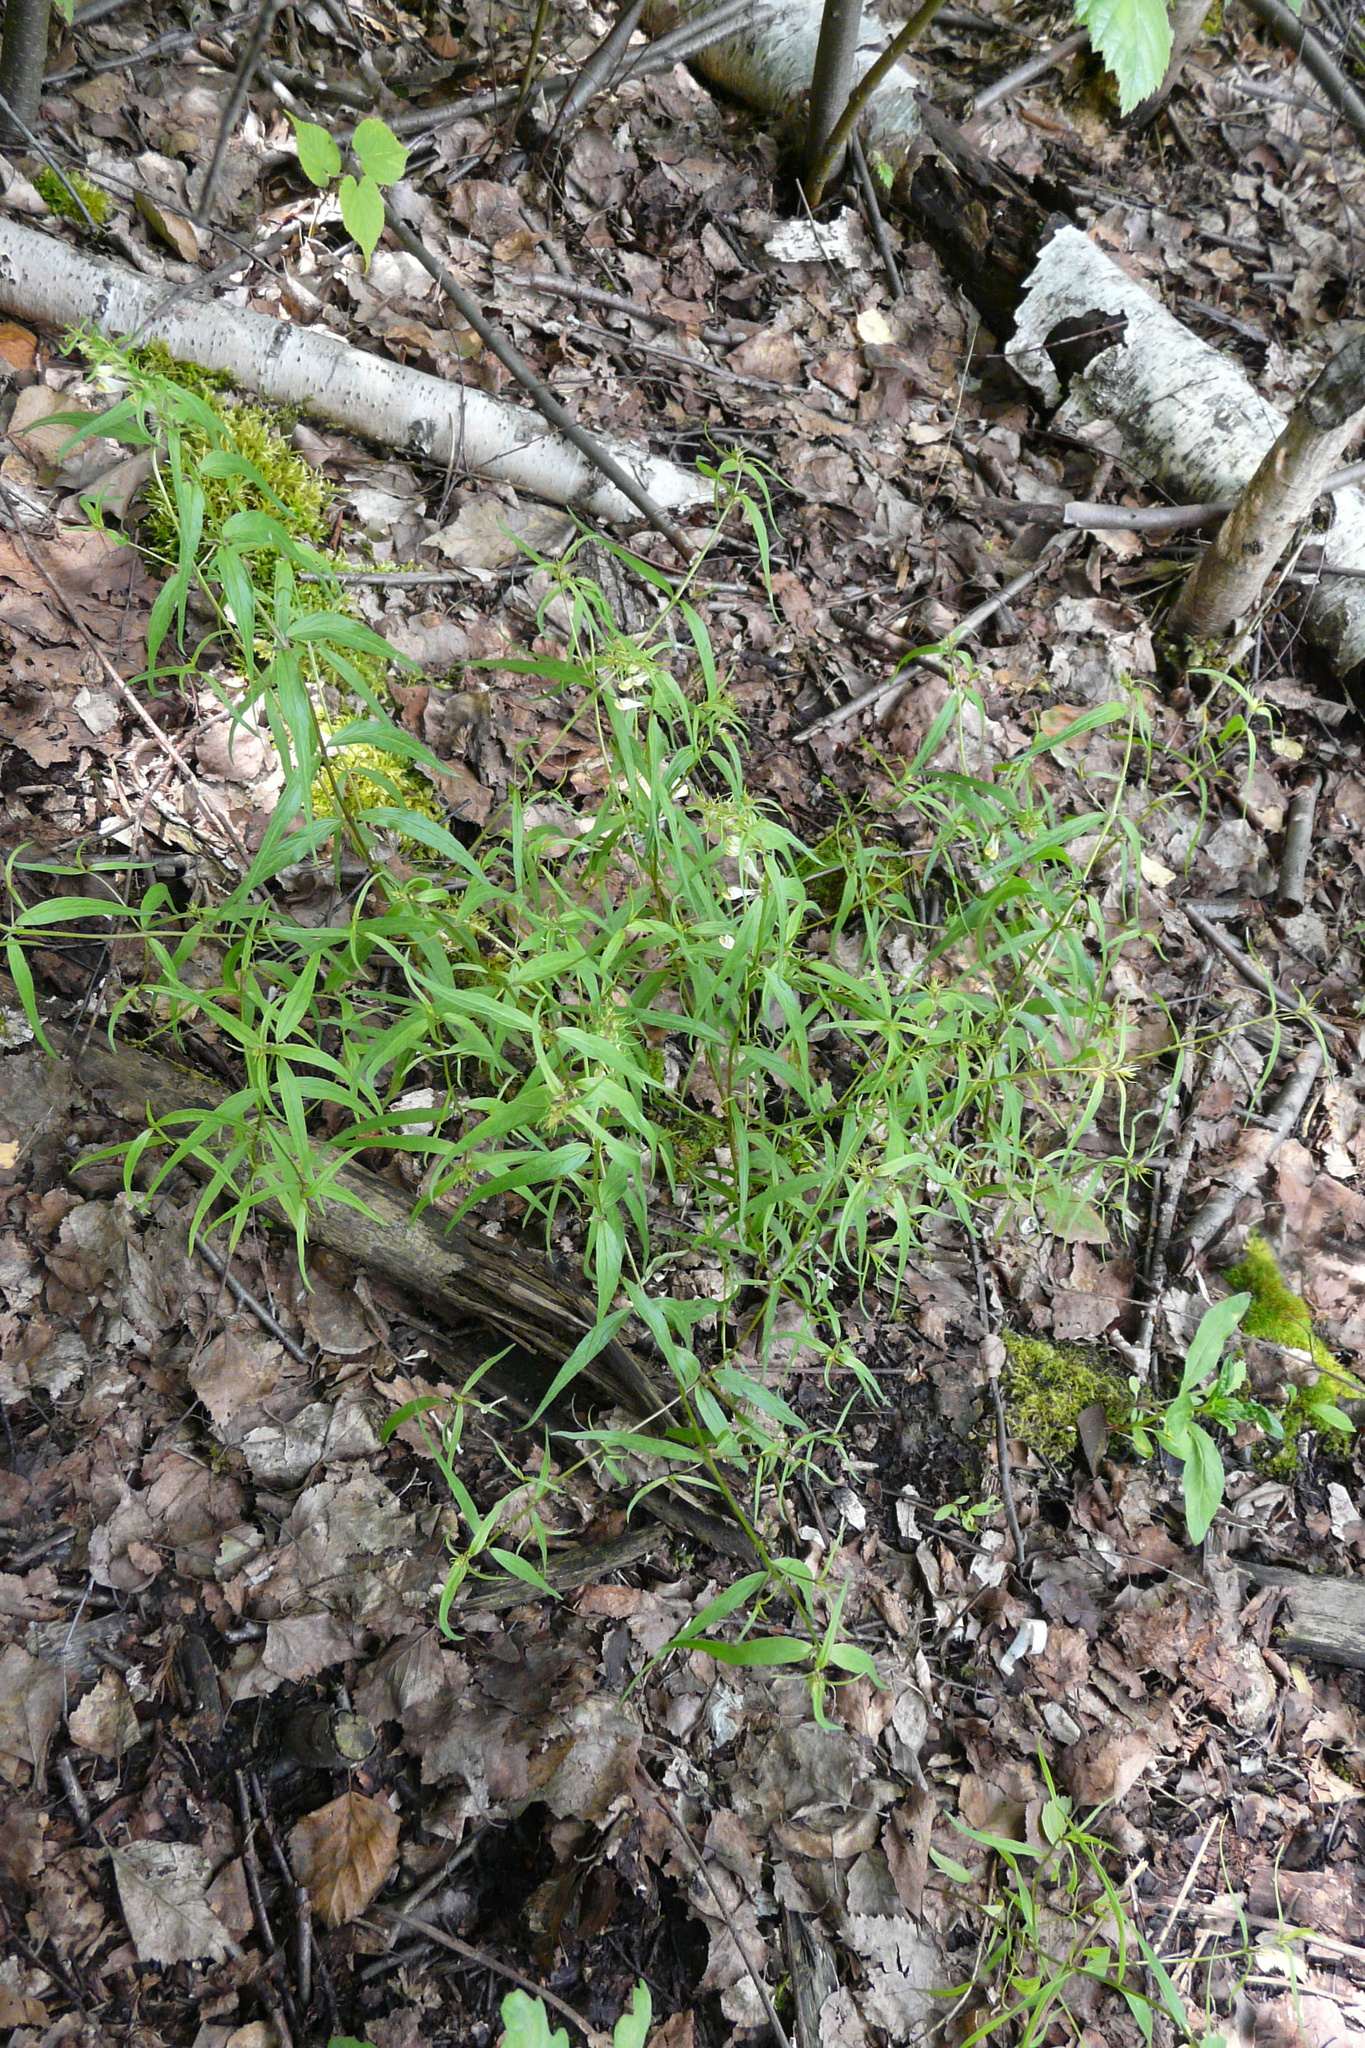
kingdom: Plantae
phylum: Tracheophyta
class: Magnoliopsida
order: Lamiales
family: Orobanchaceae
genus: Melampyrum
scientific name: Melampyrum pratense
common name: Common cow-wheat
